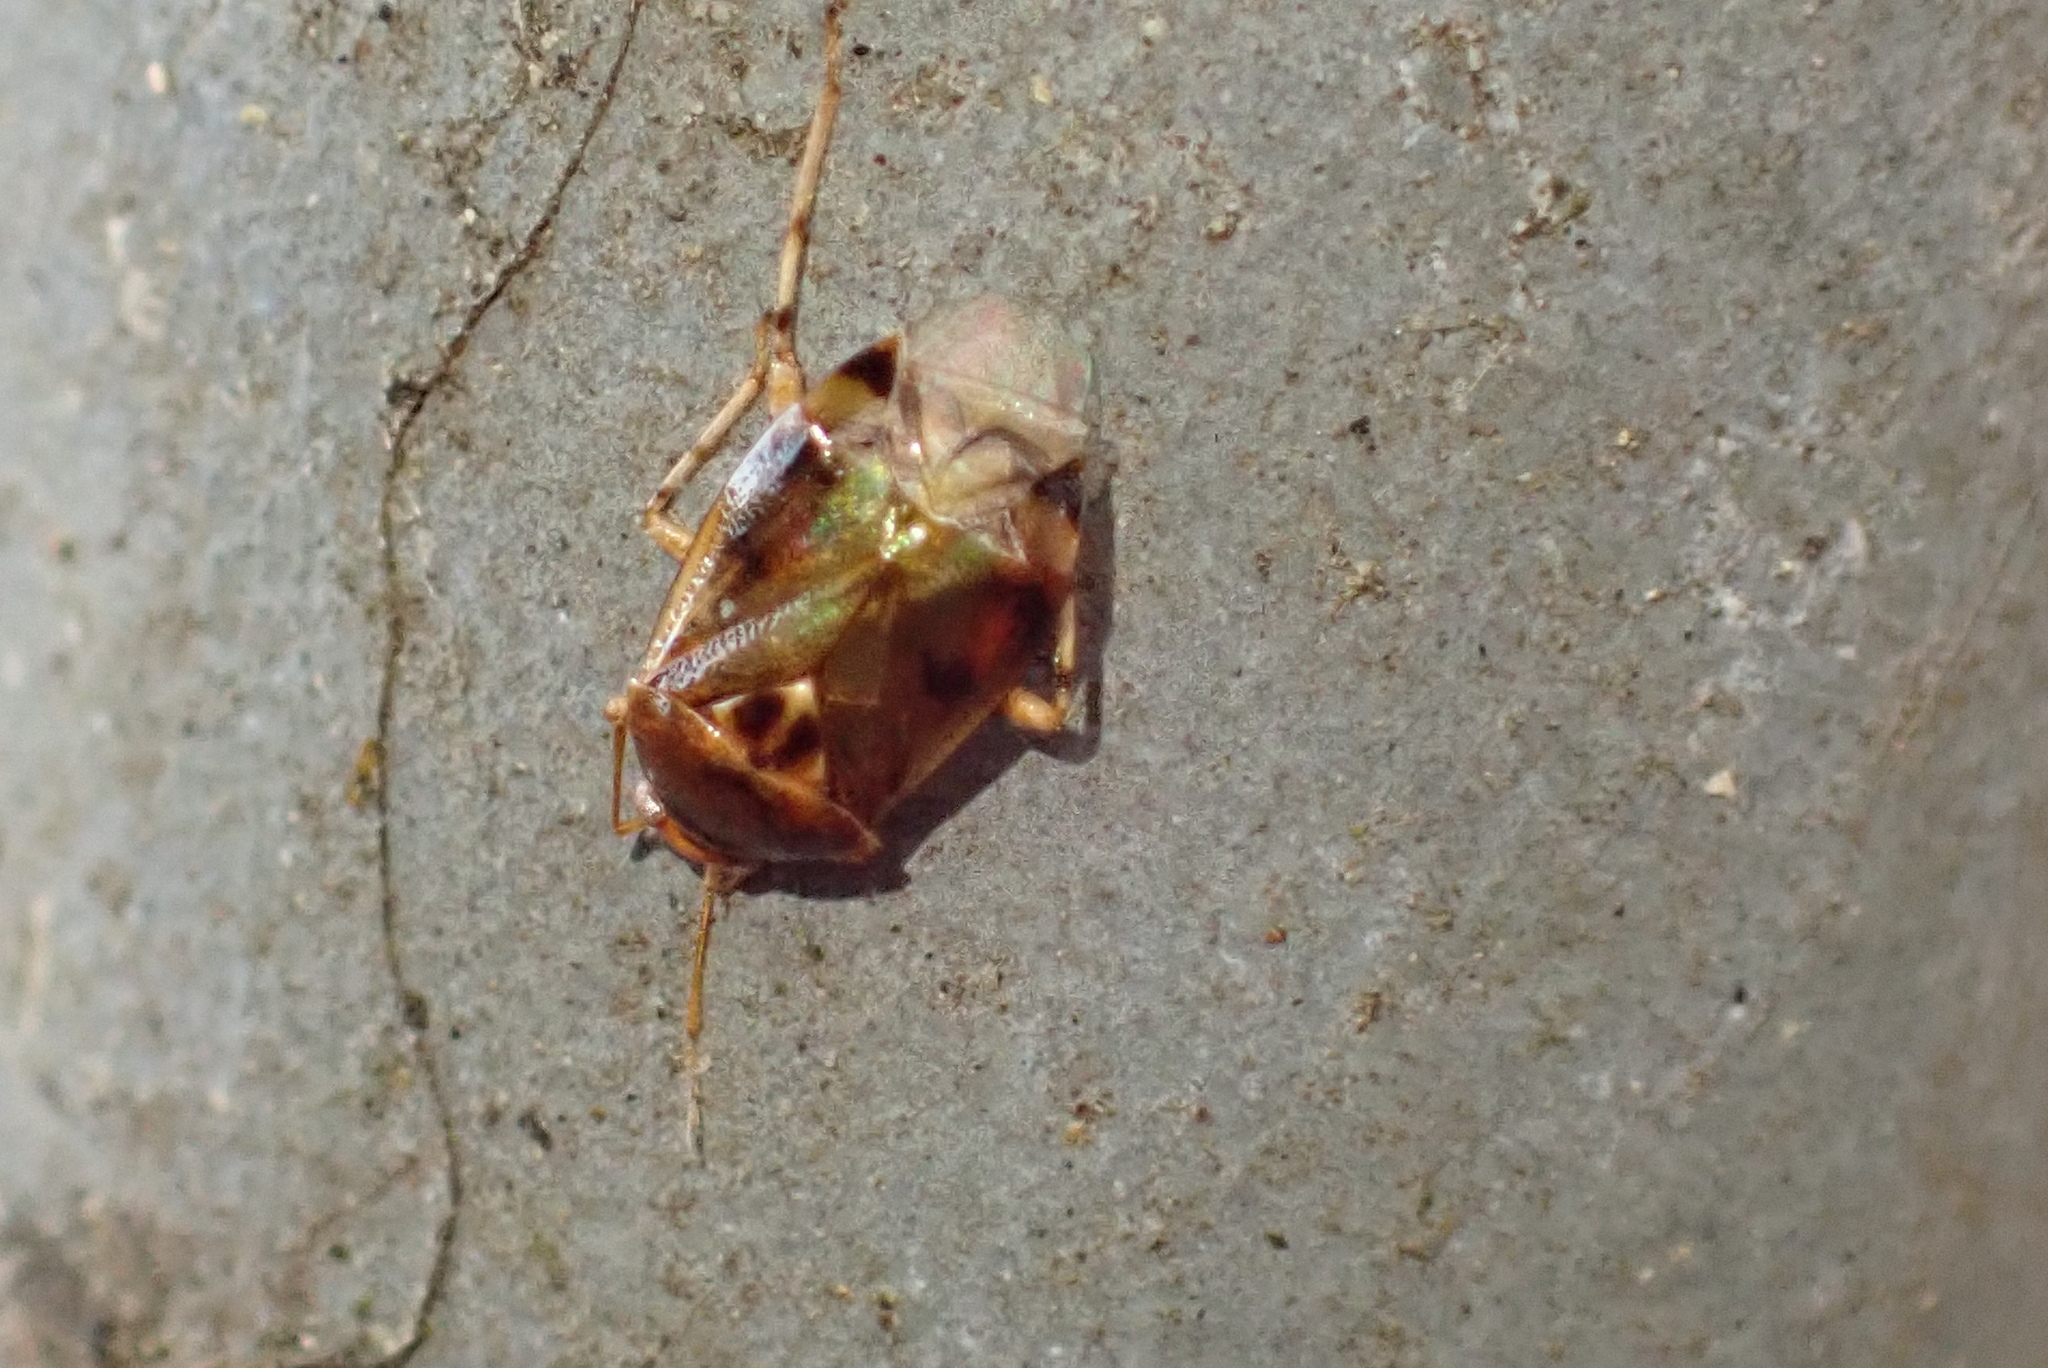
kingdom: Animalia
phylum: Arthropoda
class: Insecta
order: Hemiptera
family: Miridae
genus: Deraeocoris
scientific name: Deraeocoris lutescens
